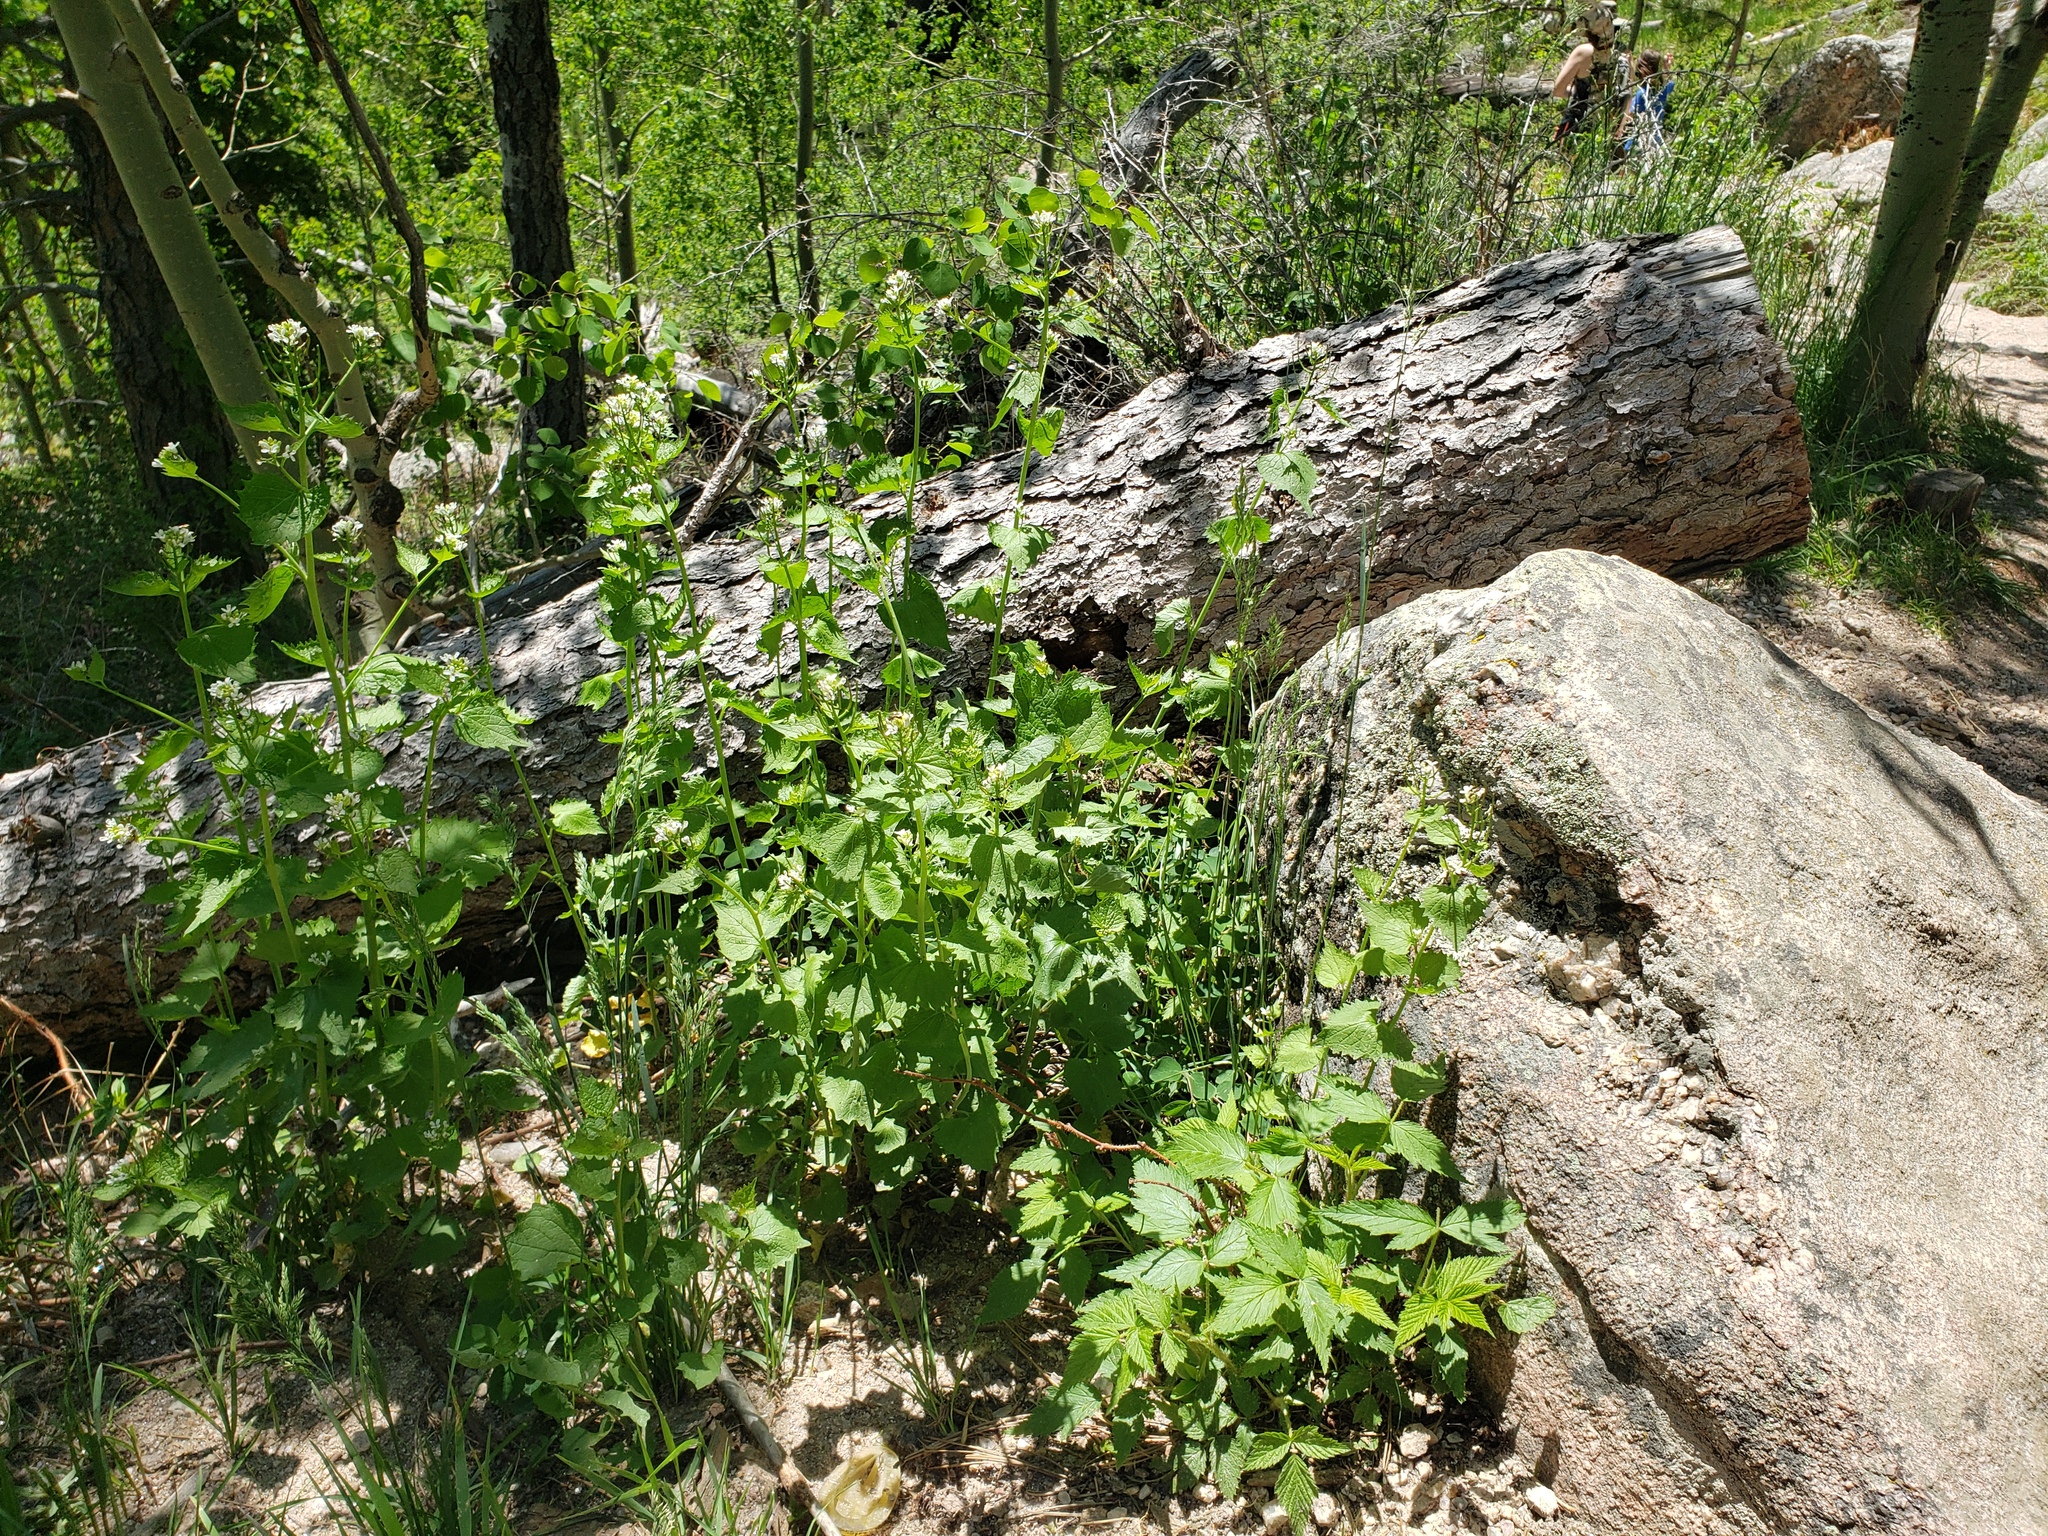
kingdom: Plantae
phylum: Tracheophyta
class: Magnoliopsida
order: Brassicales
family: Brassicaceae
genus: Alliaria
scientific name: Alliaria petiolata
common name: Garlic mustard
